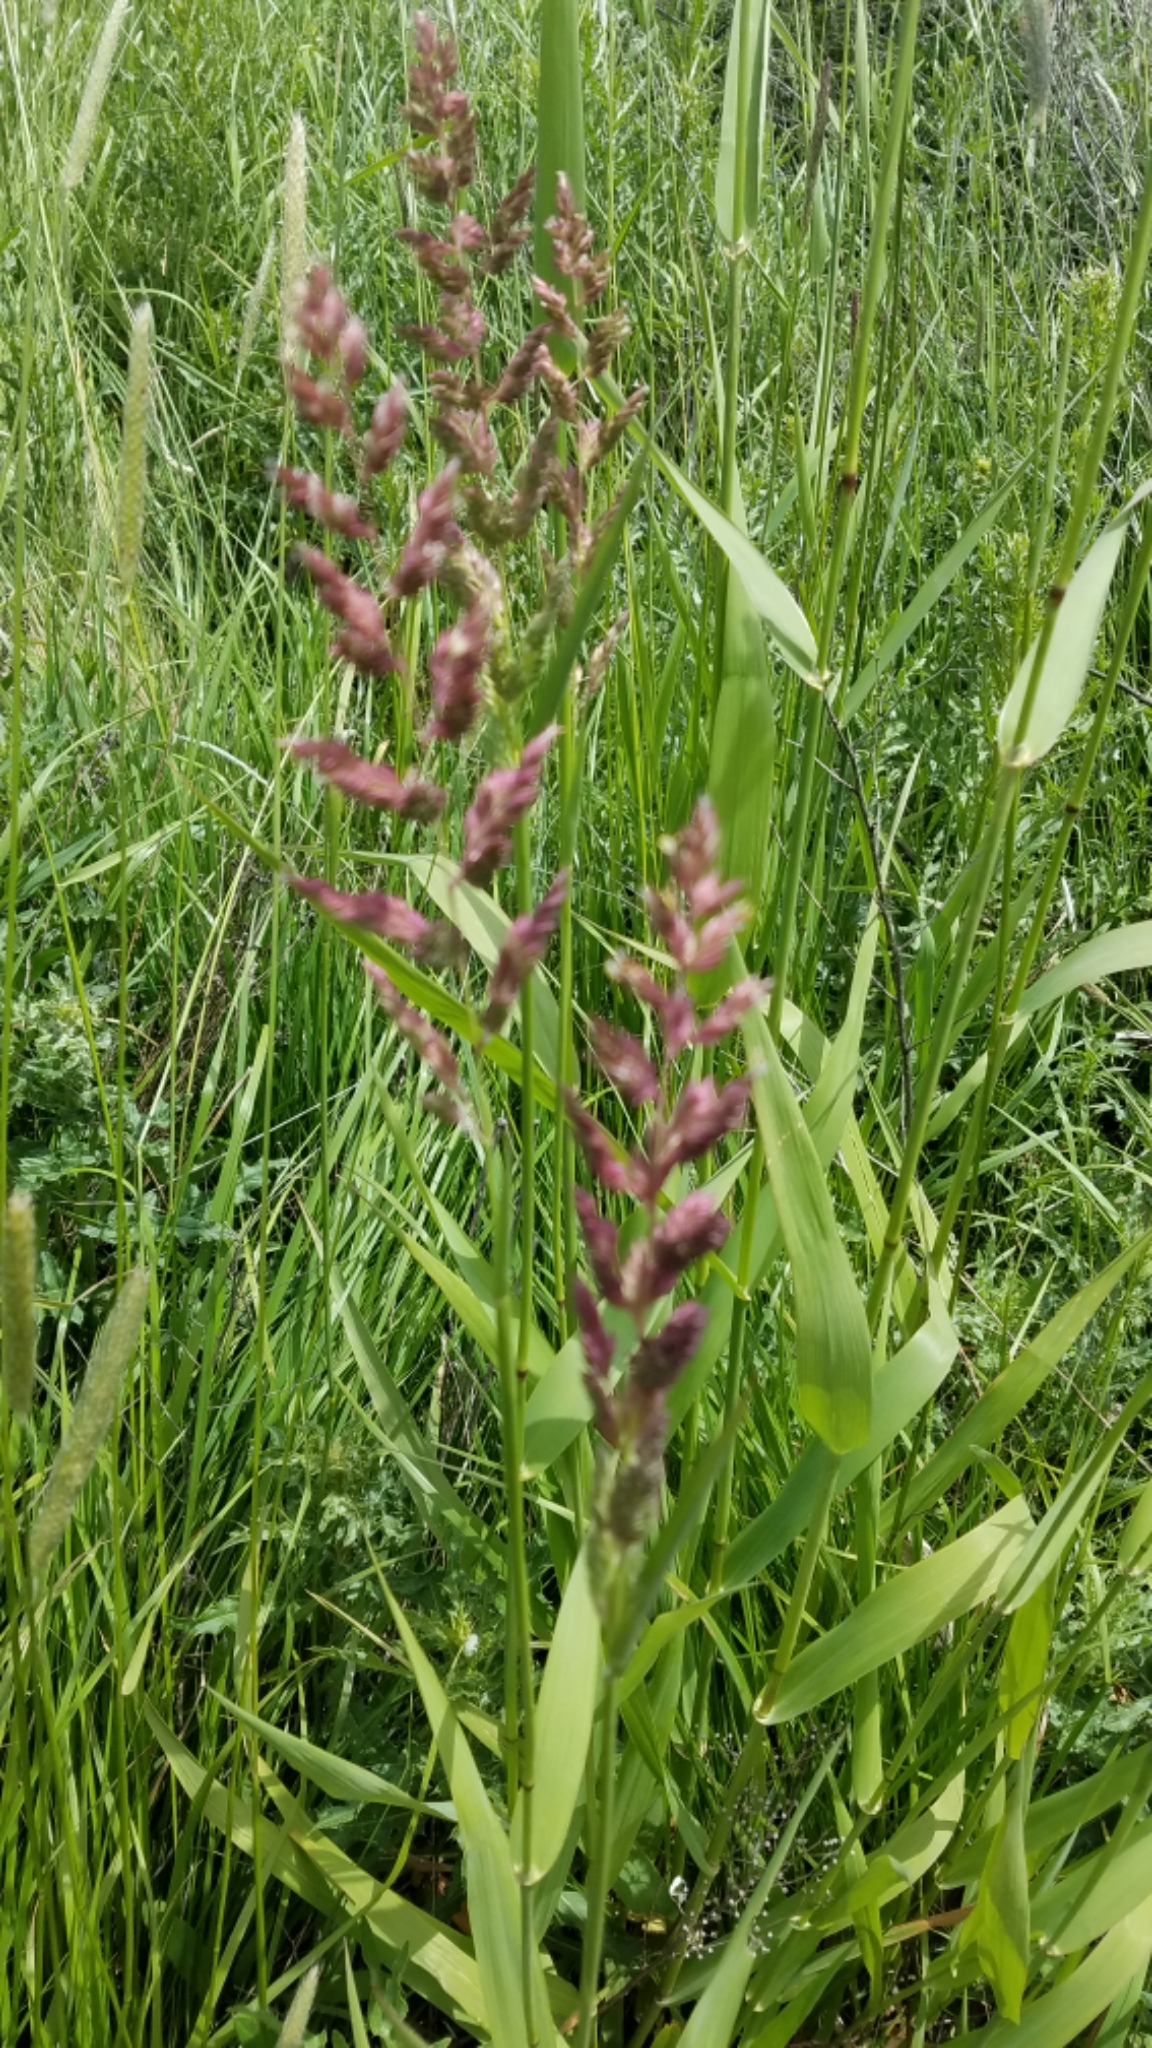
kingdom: Plantae
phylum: Tracheophyta
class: Liliopsida
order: Poales
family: Poaceae
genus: Phalaris
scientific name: Phalaris arundinacea
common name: Reed canary-grass
